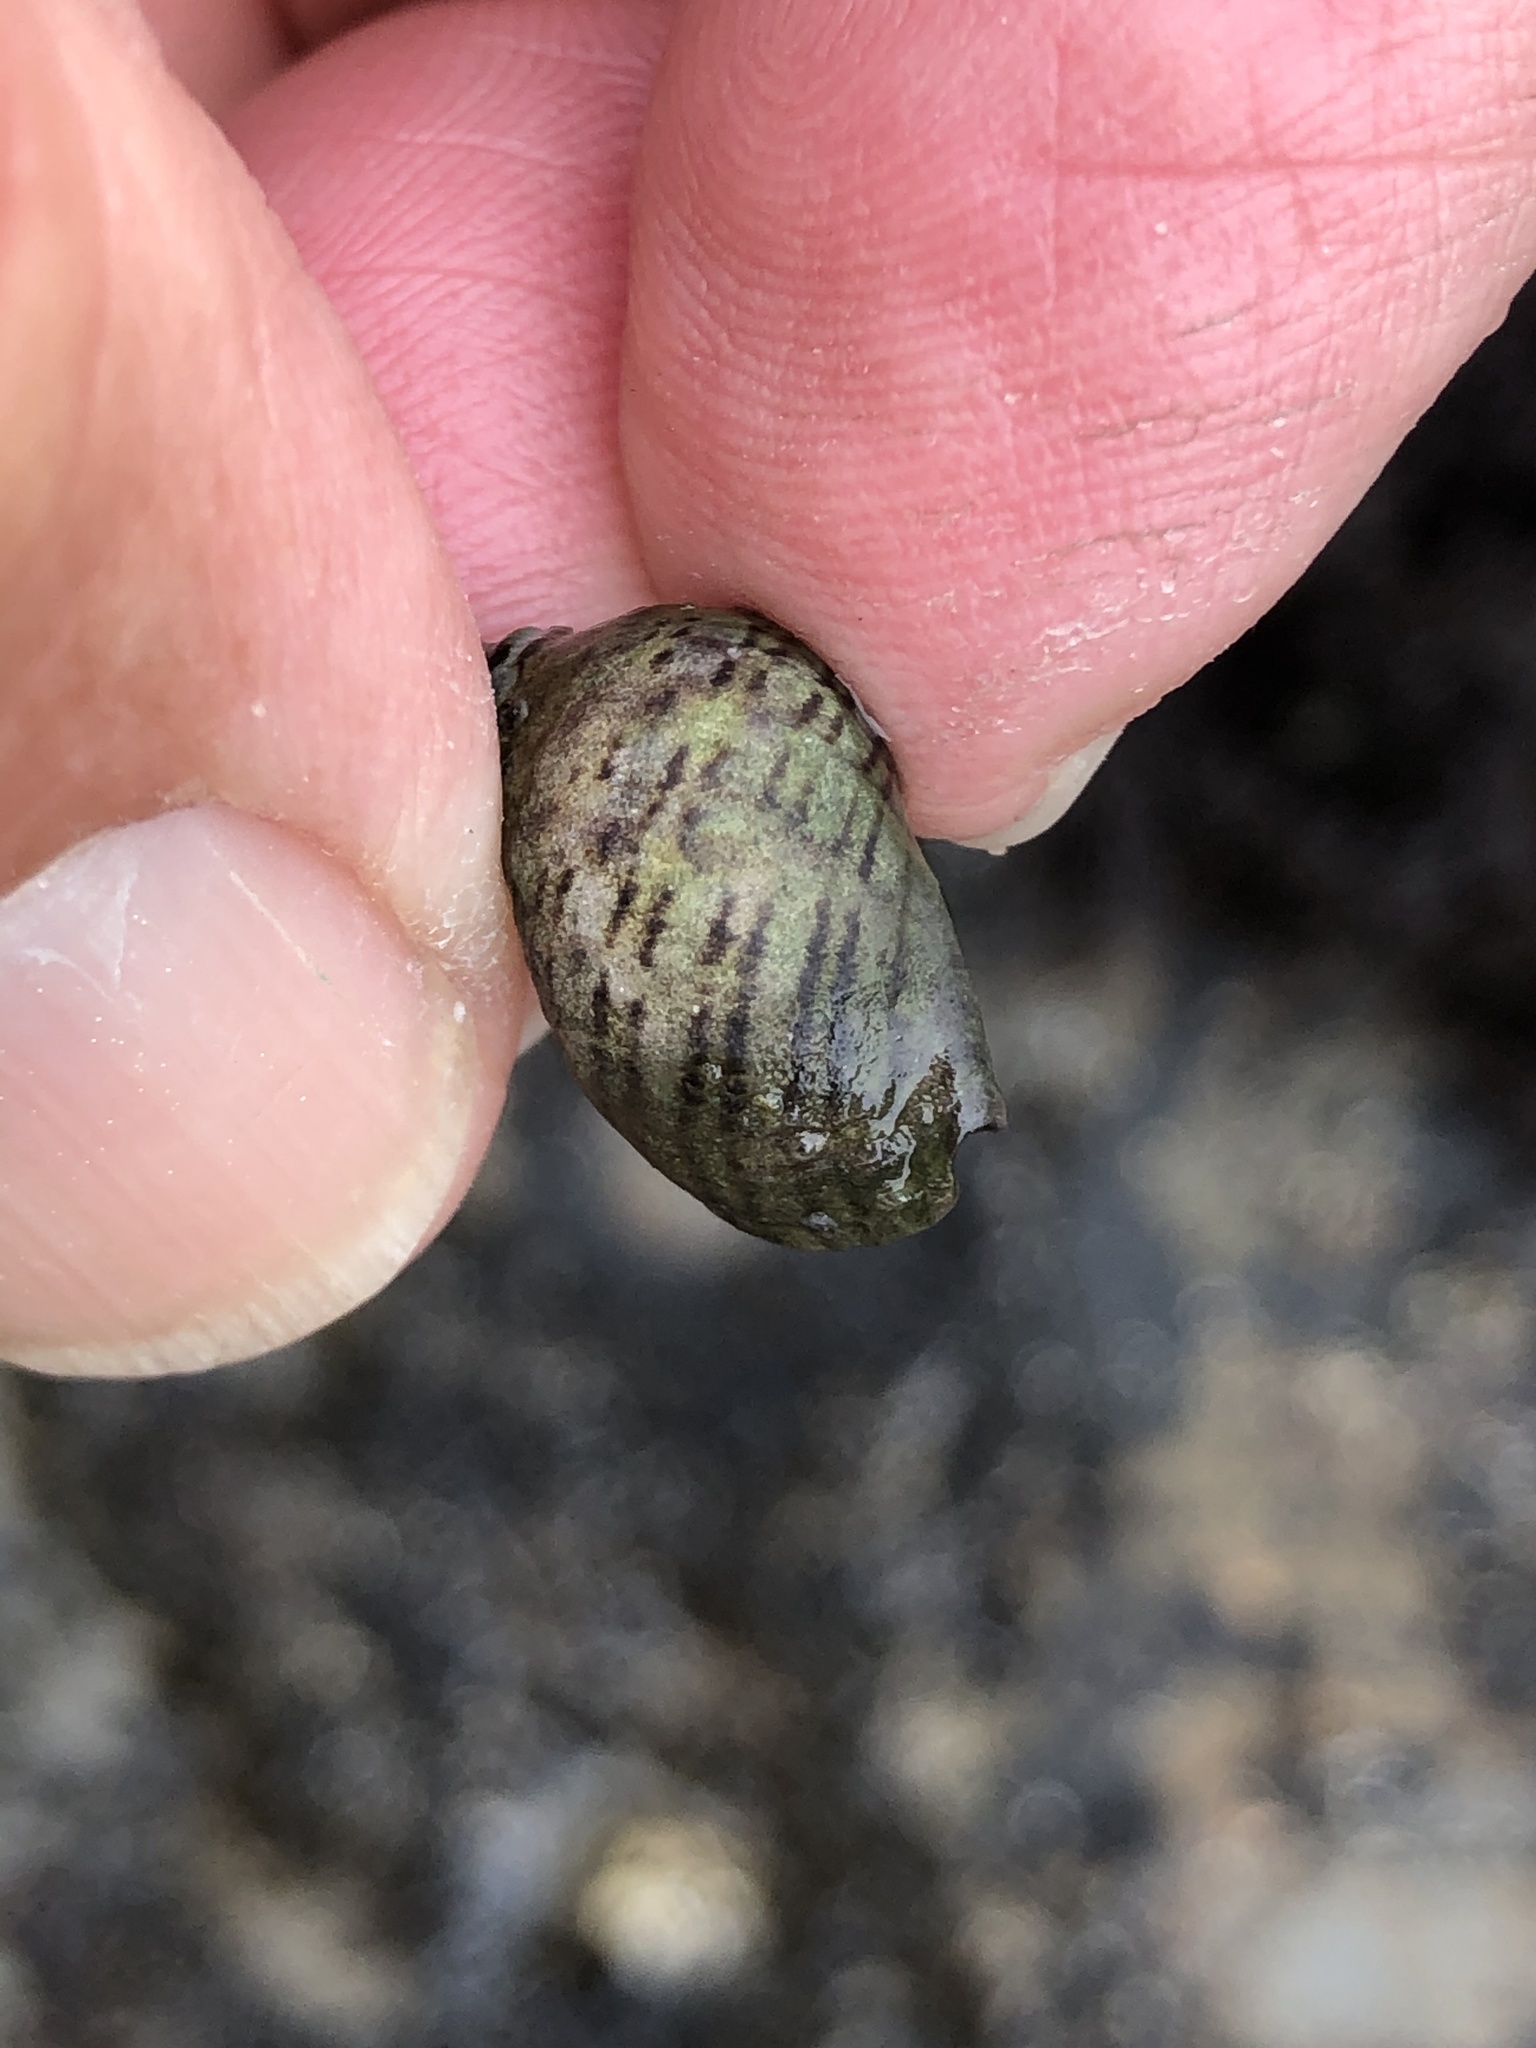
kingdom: Animalia
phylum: Arthropoda
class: Malacostraca
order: Decapoda
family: Paguridae
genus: Pagurus
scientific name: Pagurus hirsutiusculus
